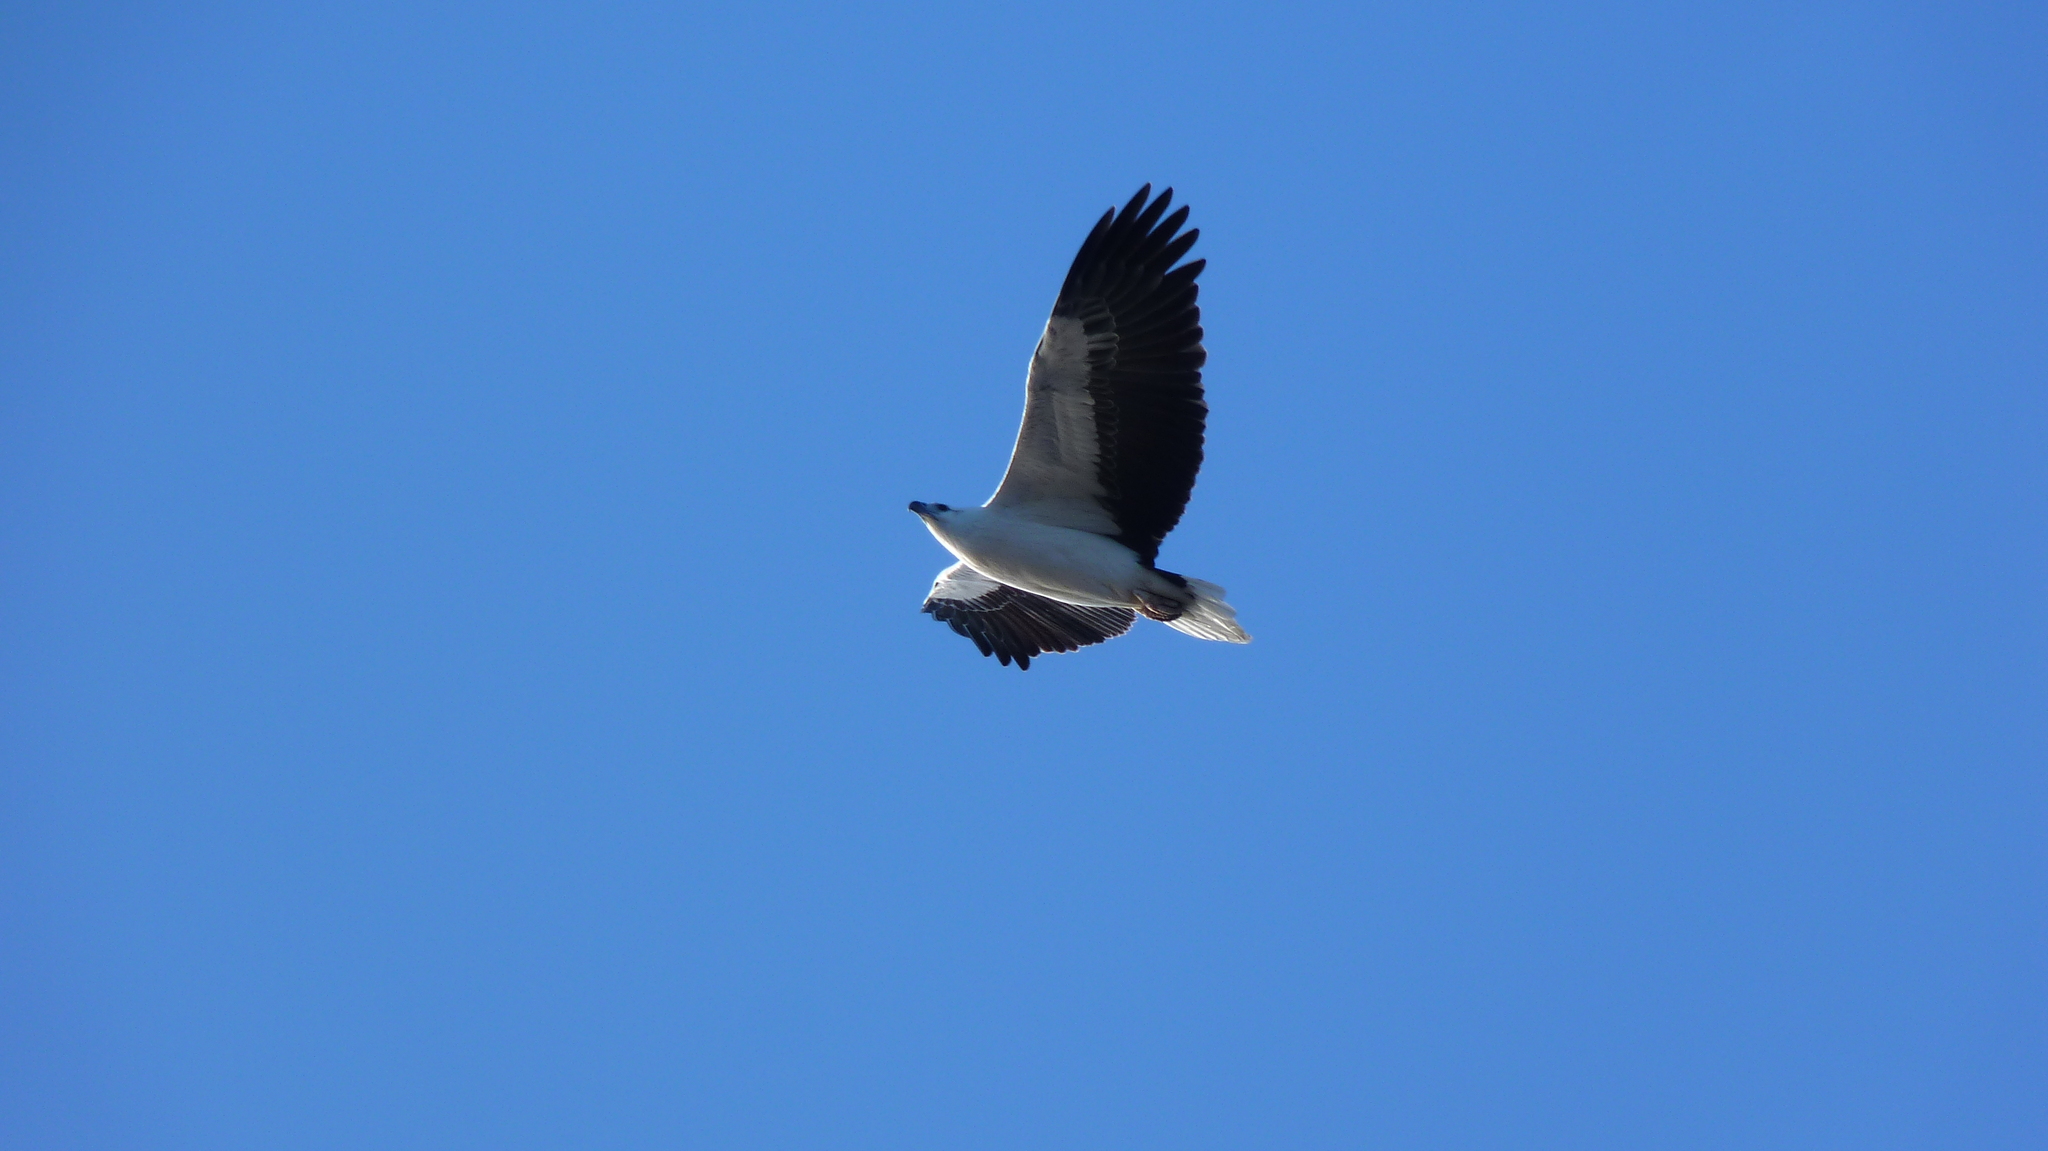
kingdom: Animalia
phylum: Chordata
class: Aves
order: Accipitriformes
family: Accipitridae
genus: Haliaeetus
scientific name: Haliaeetus leucogaster
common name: White-bellied sea eagle
